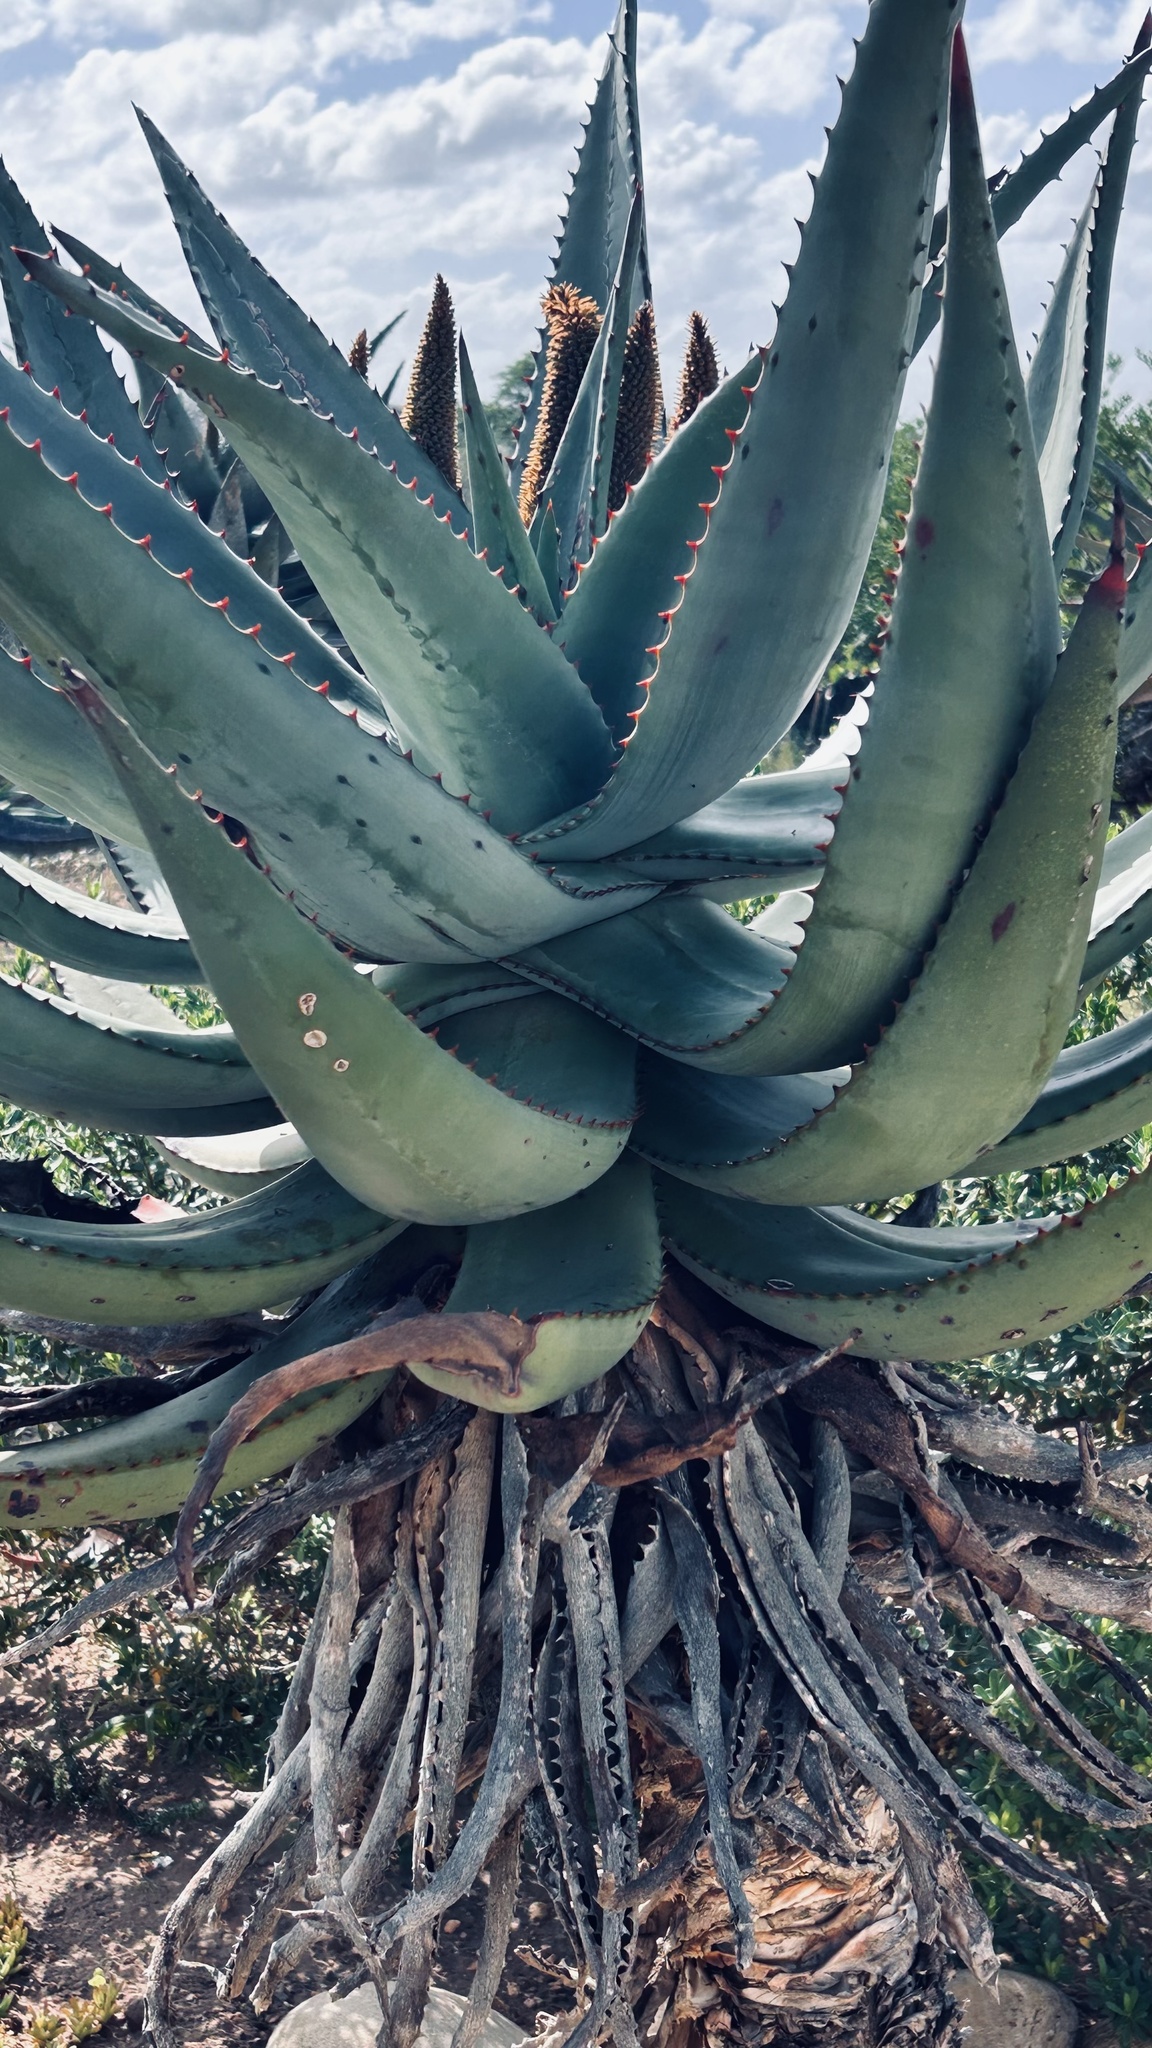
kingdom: Plantae
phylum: Tracheophyta
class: Liliopsida
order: Asparagales
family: Asphodelaceae
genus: Aloe
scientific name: Aloe ferox
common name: Bitter aloe
